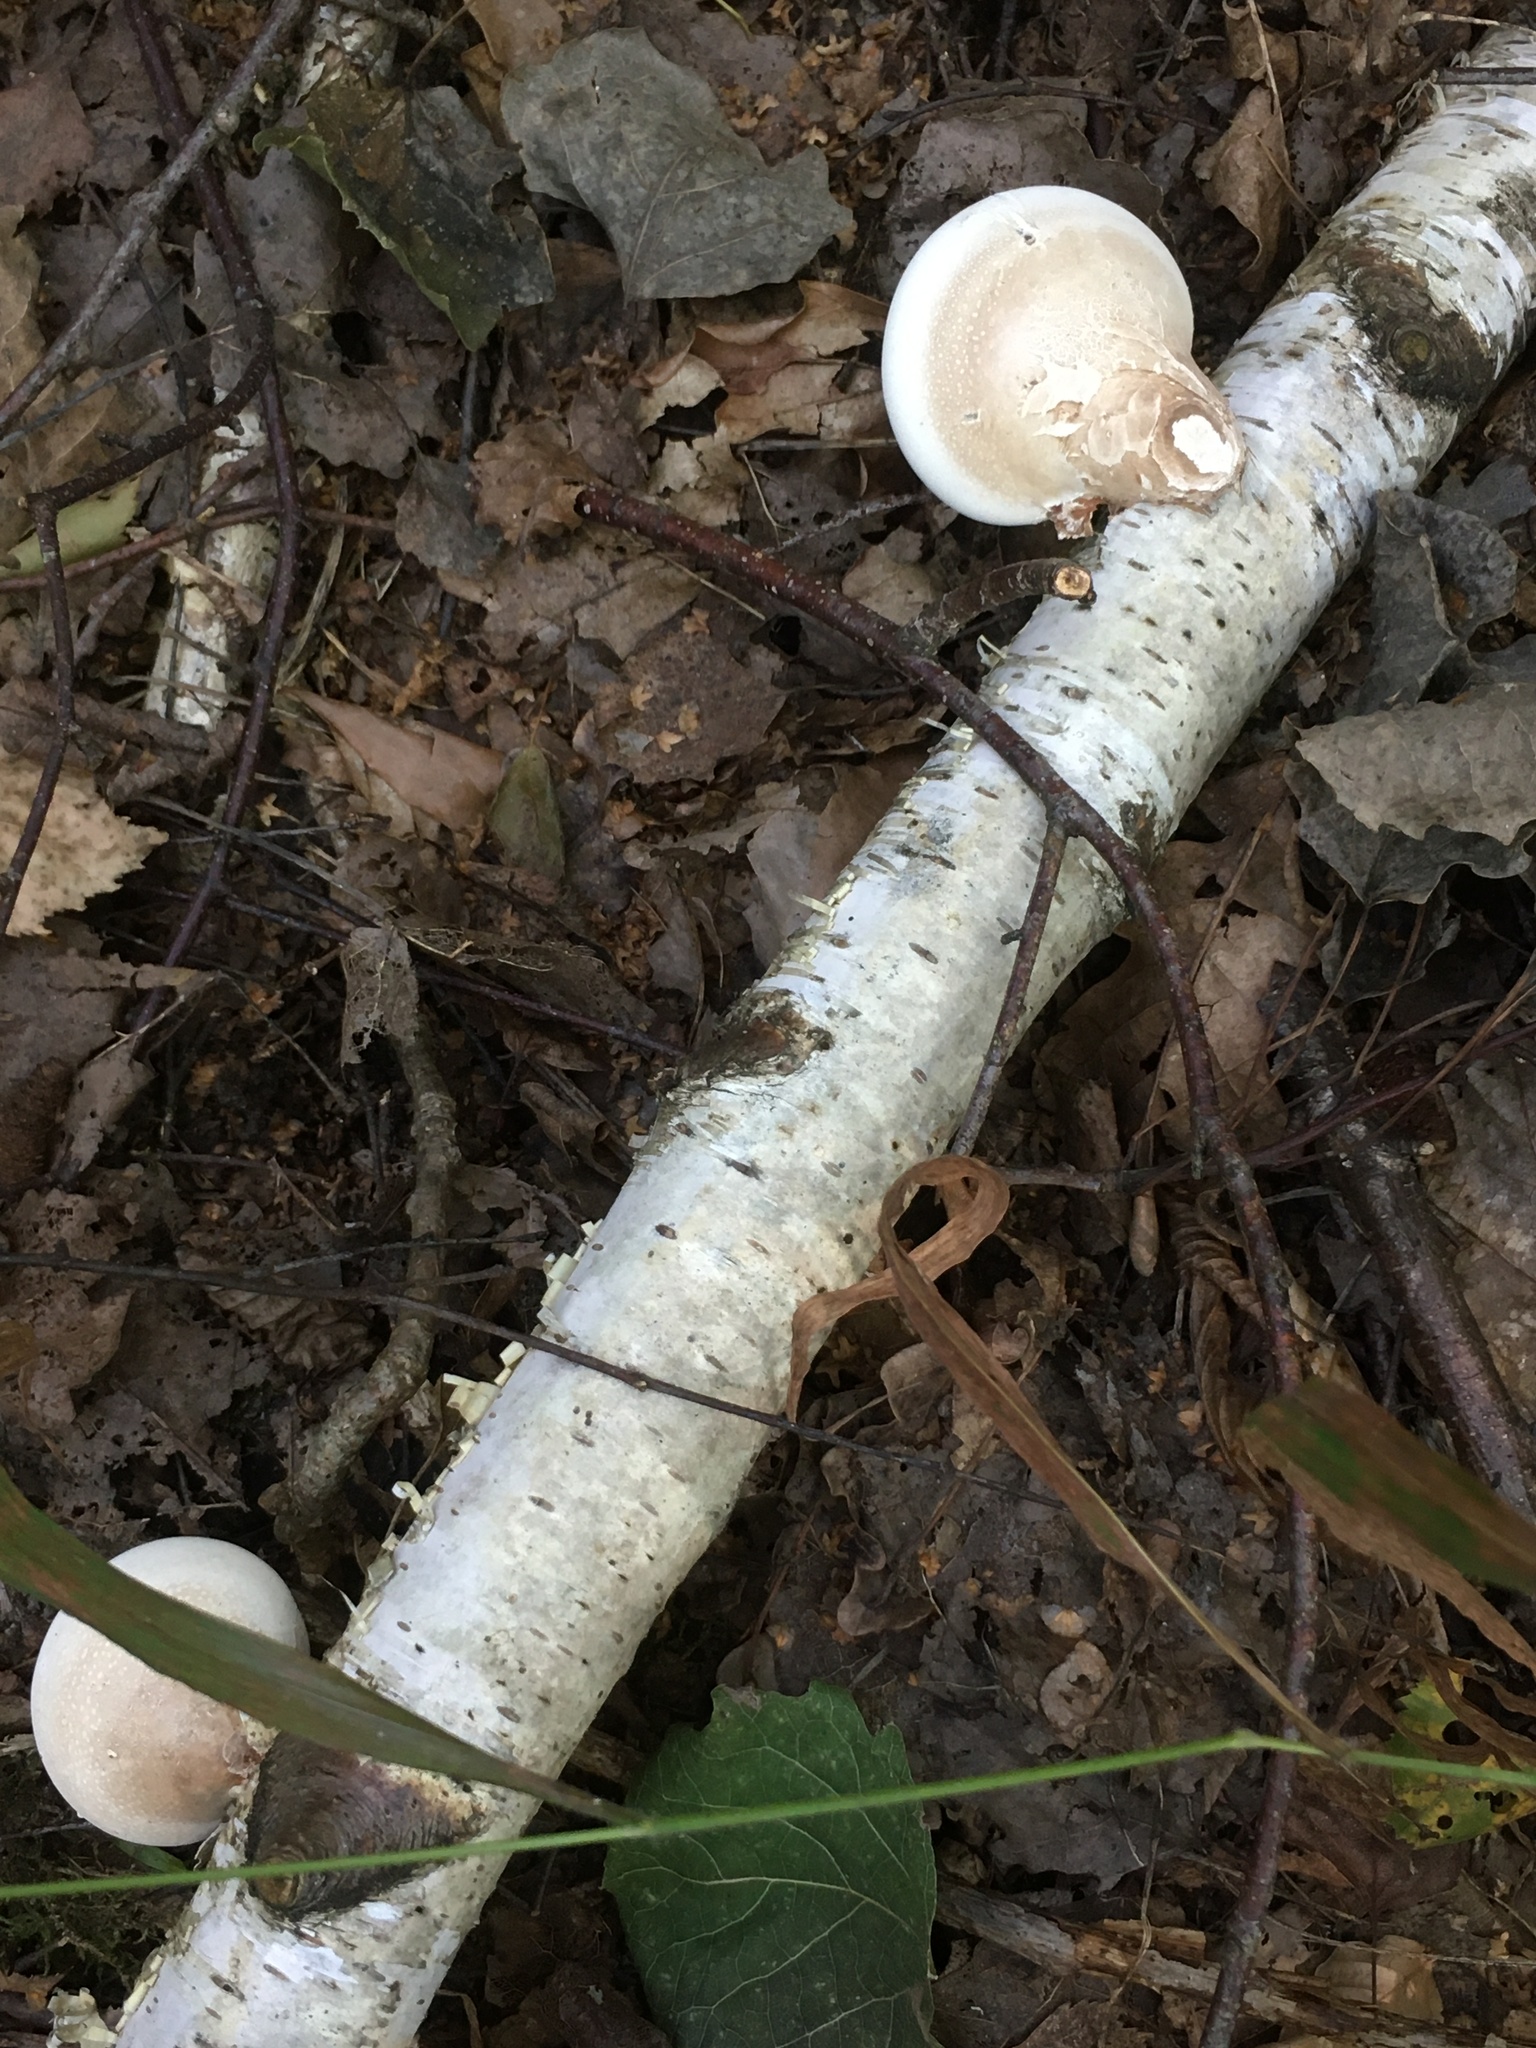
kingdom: Fungi
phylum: Basidiomycota
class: Agaricomycetes
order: Polyporales
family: Fomitopsidaceae
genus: Fomitopsis
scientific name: Fomitopsis betulina
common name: Birch polypore
